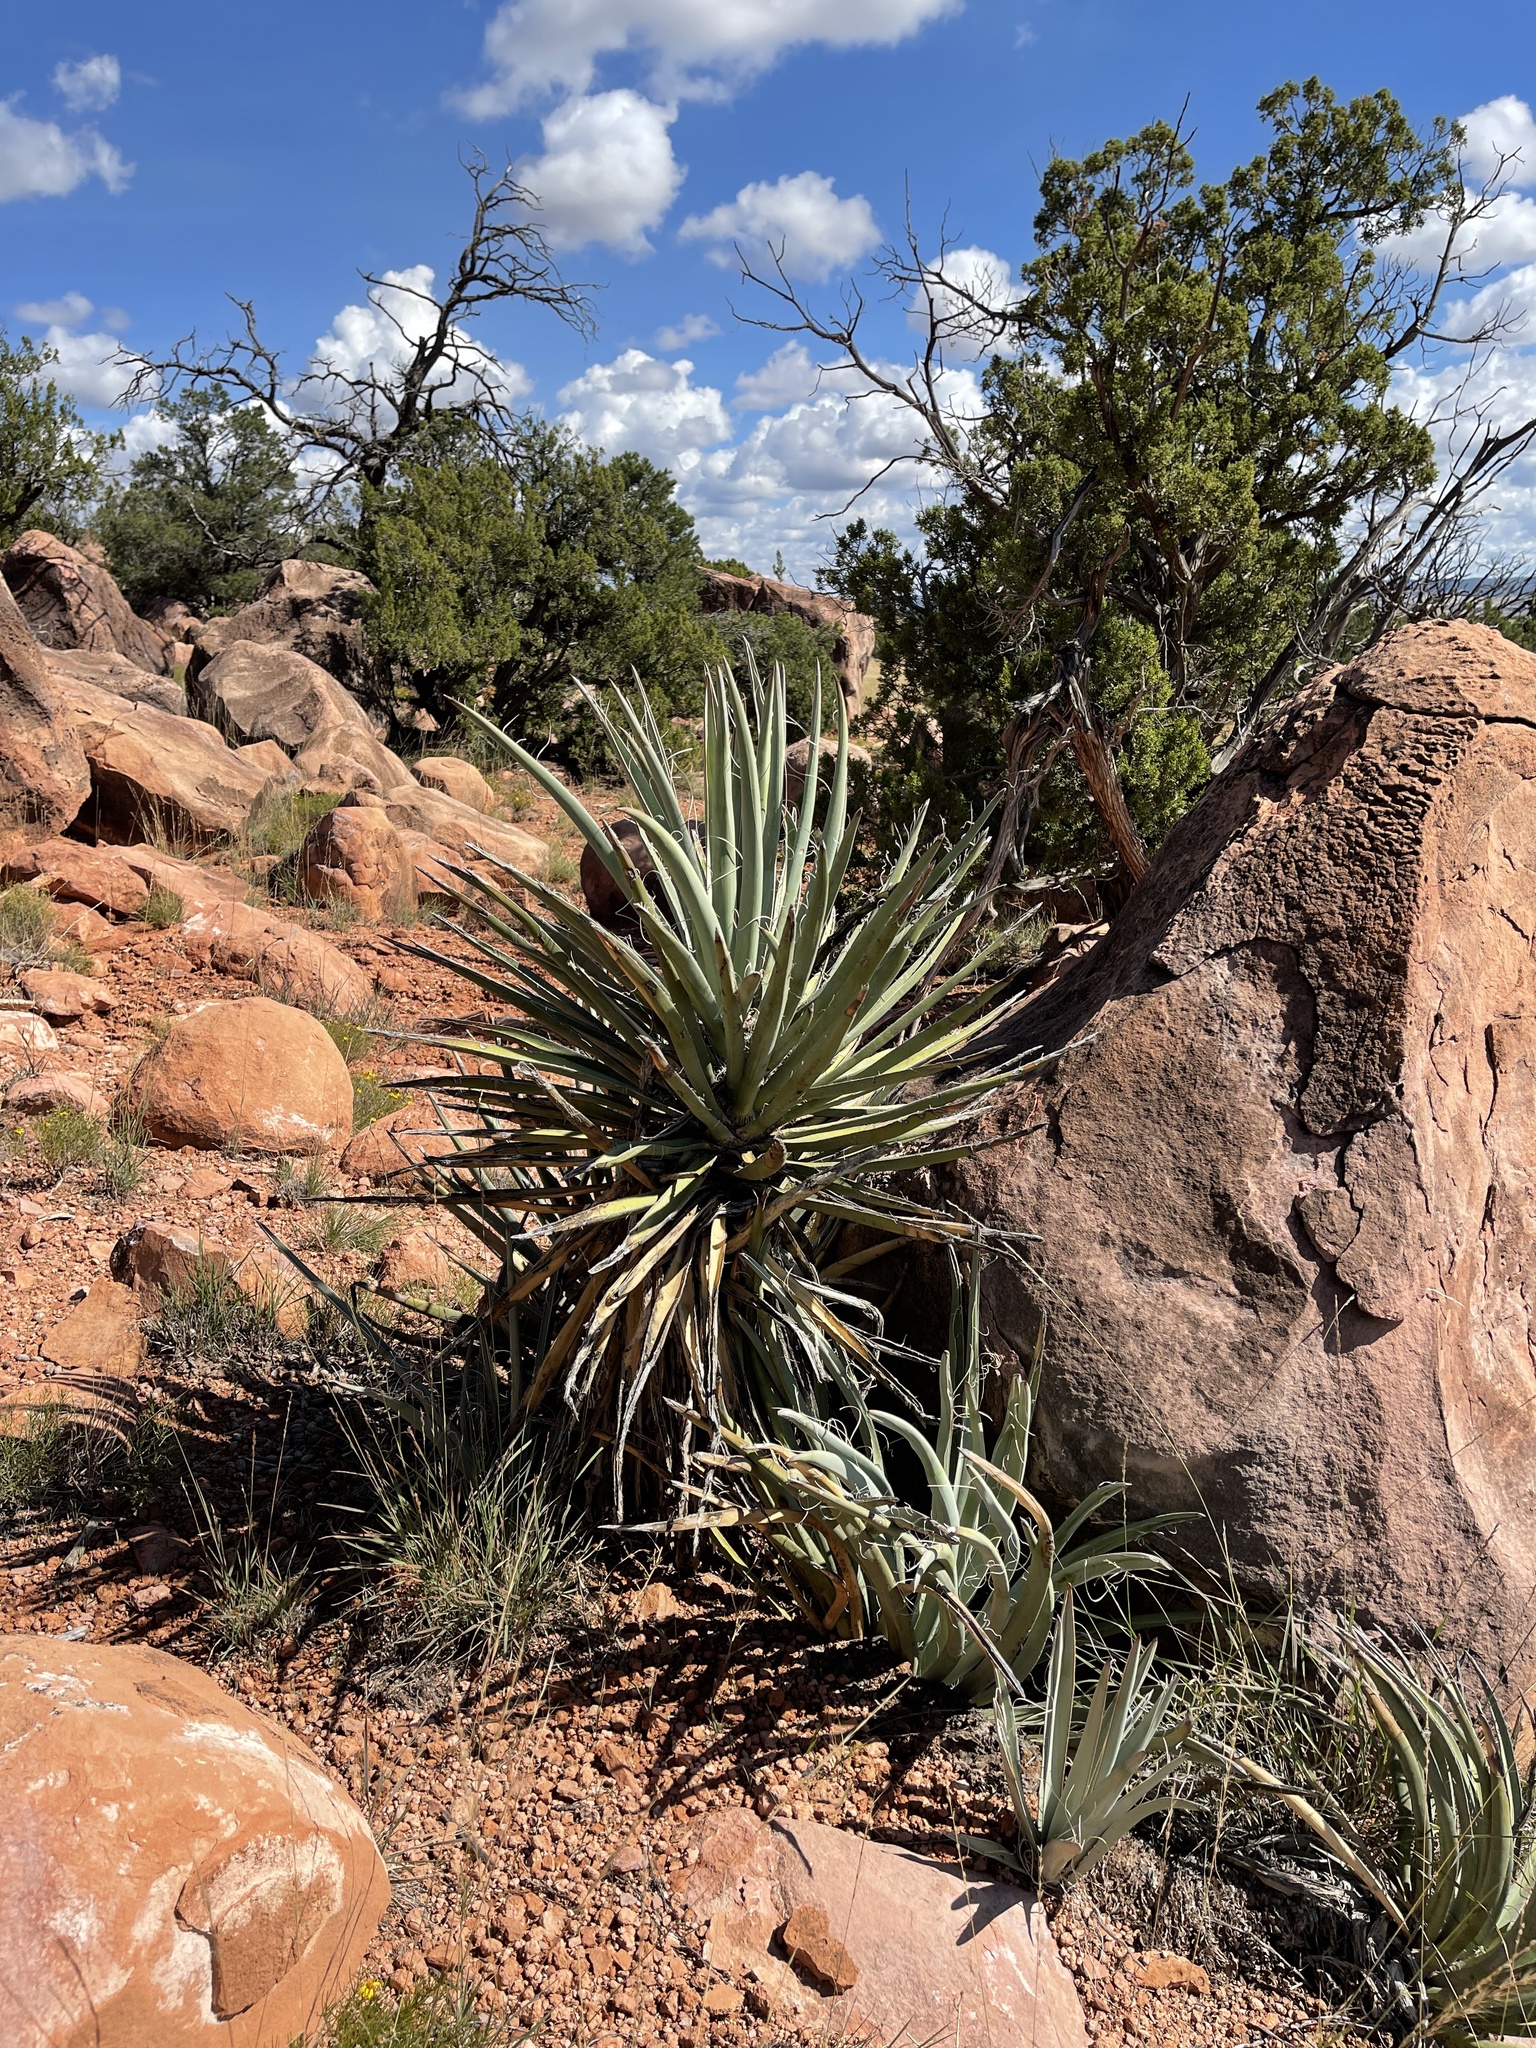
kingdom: Plantae
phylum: Tracheophyta
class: Liliopsida
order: Asparagales
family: Asparagaceae
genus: Yucca
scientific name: Yucca baccata
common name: Banana yucca
